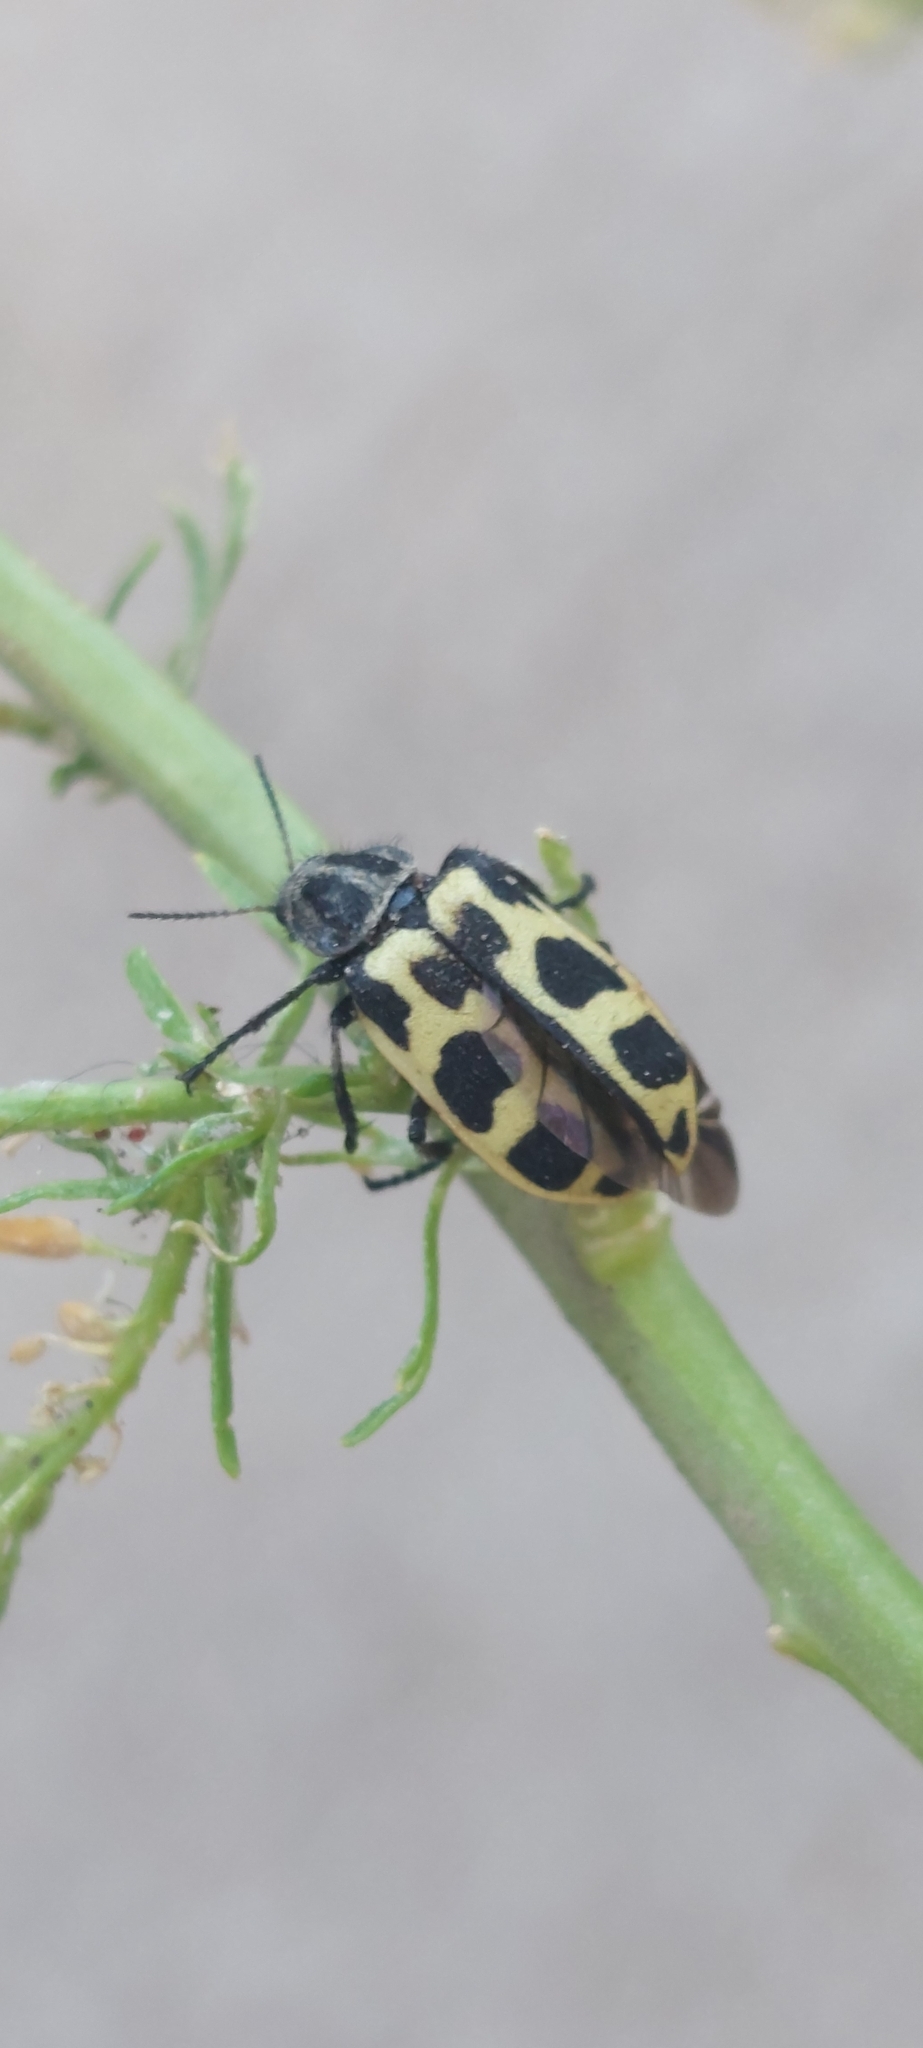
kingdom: Animalia
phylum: Arthropoda
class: Insecta
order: Coleoptera
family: Melyridae
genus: Astylus
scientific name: Astylus atromaculatus
